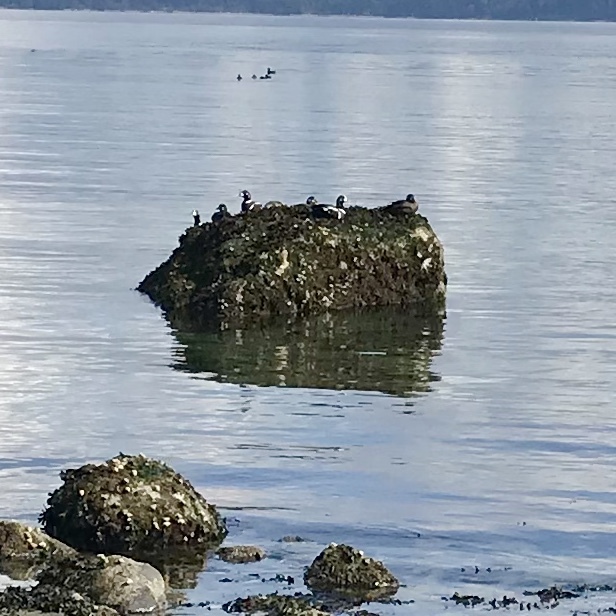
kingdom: Animalia
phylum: Chordata
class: Aves
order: Anseriformes
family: Anatidae
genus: Histrionicus
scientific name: Histrionicus histrionicus
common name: Harlequin duck
